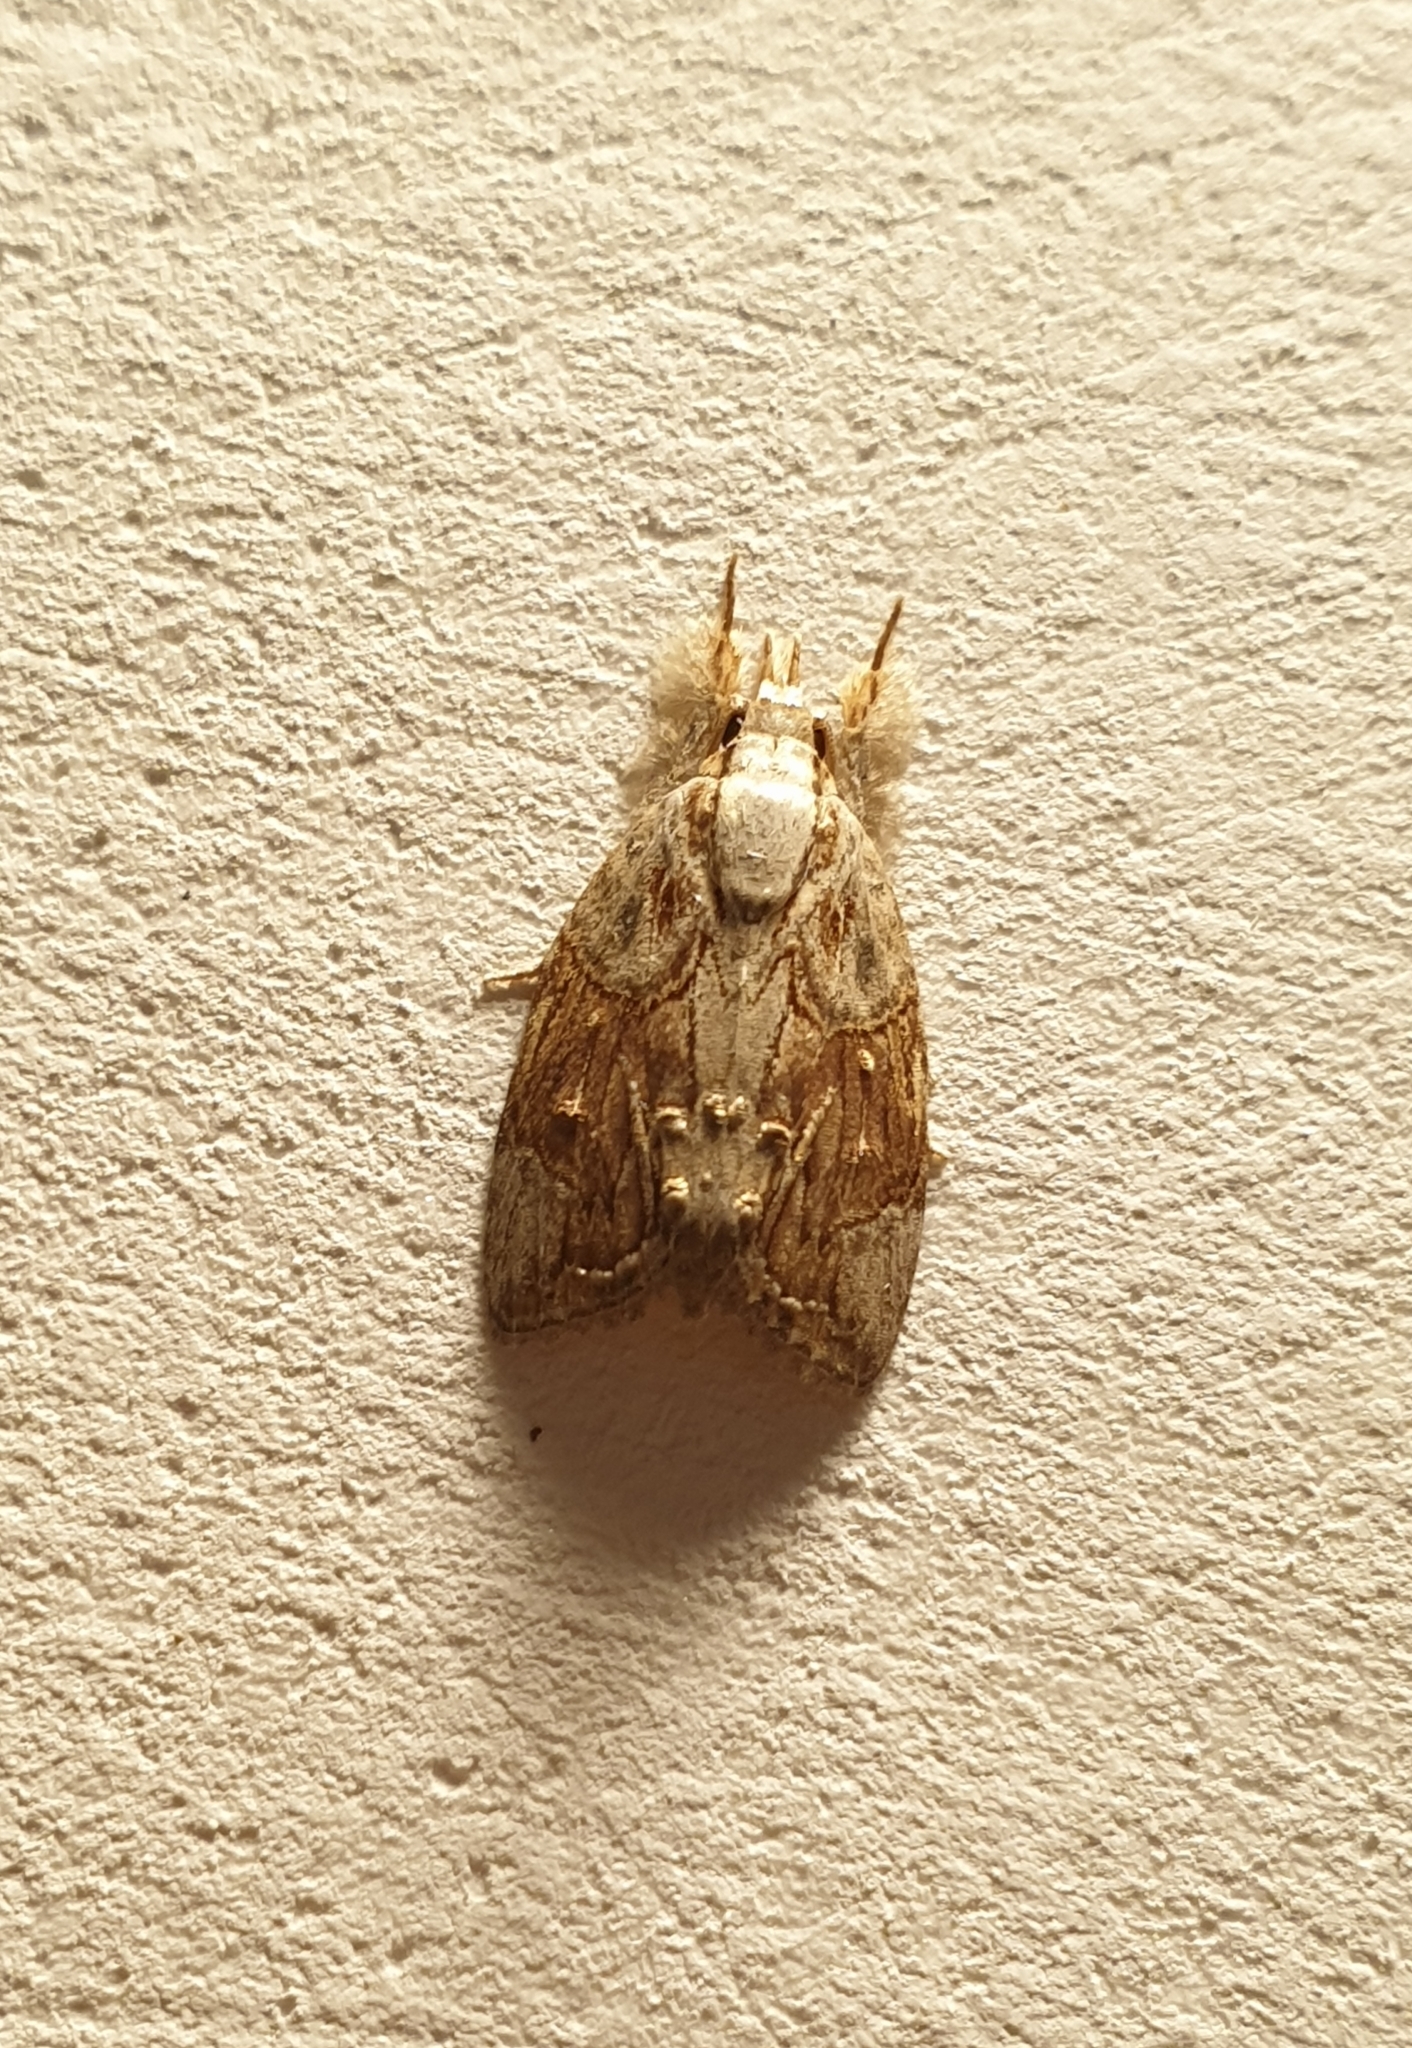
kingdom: Animalia
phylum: Arthropoda
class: Insecta
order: Lepidoptera
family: Nolidae
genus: Selepa
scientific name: Selepa ferrofusa
